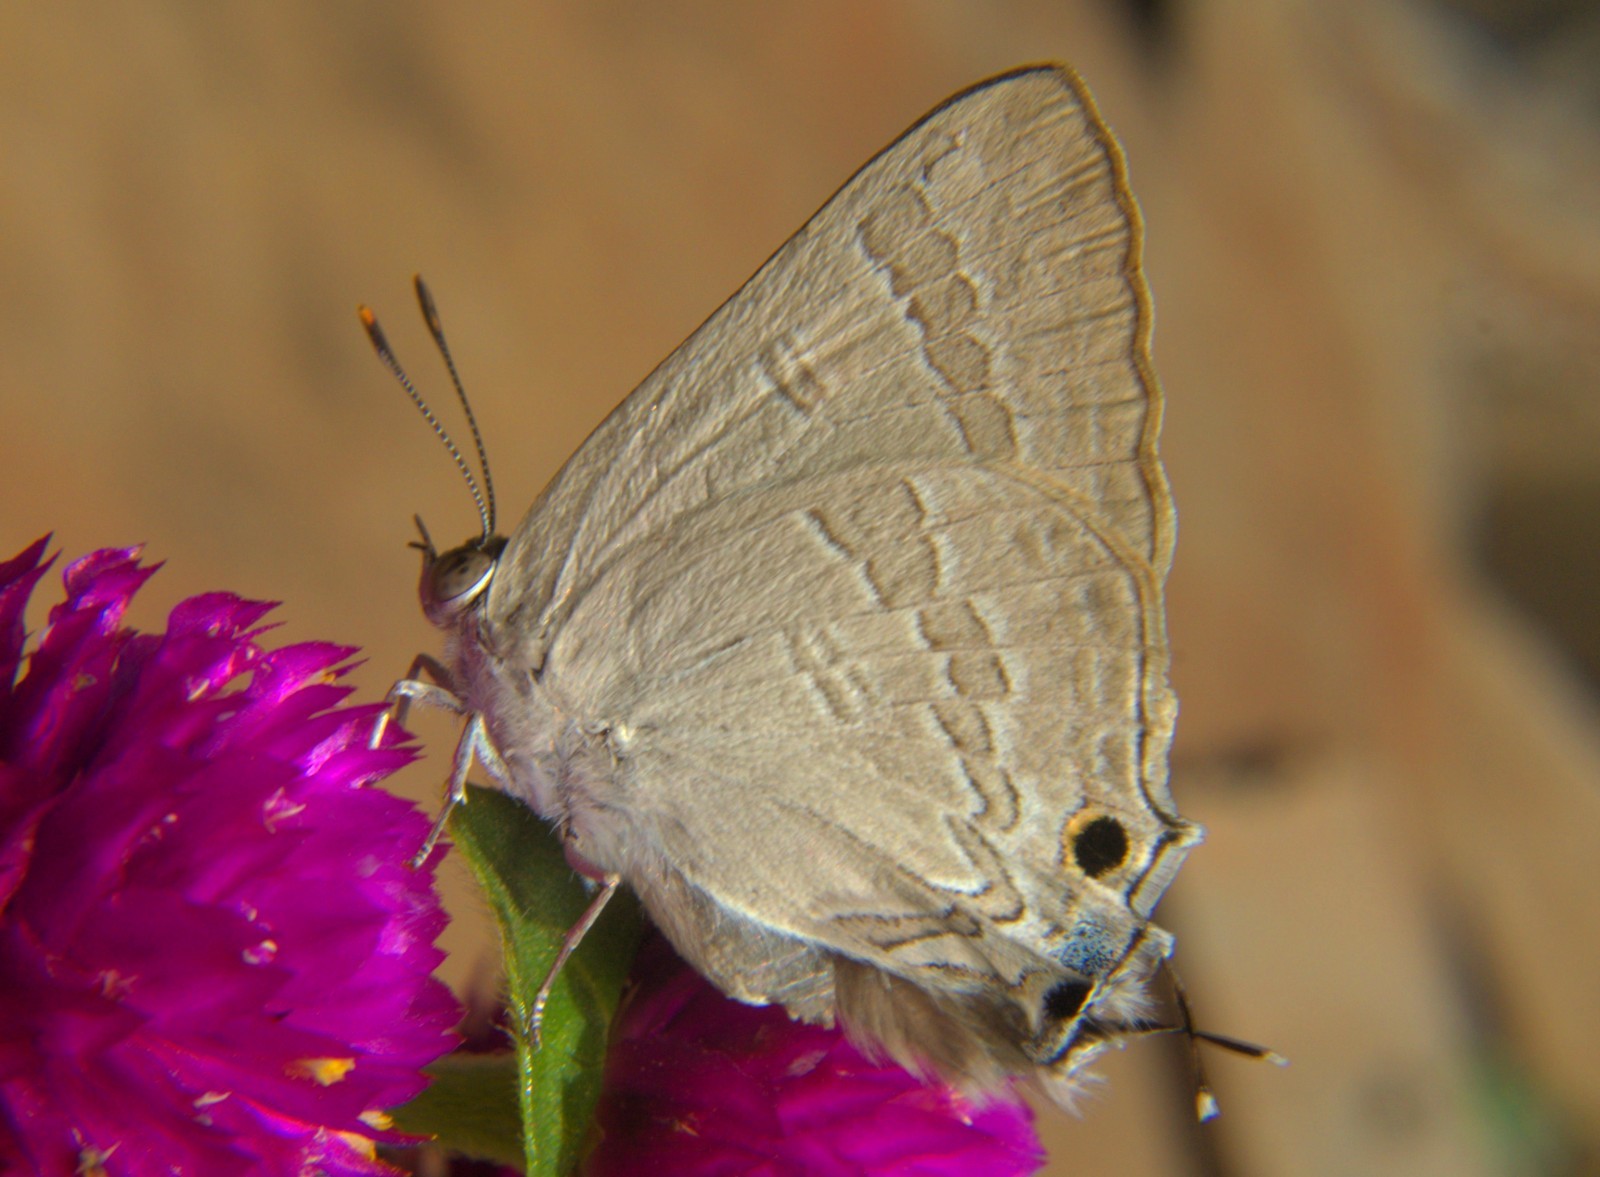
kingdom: Animalia
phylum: Arthropoda
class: Insecta
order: Lepidoptera
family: Lycaenidae
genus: Deudorix
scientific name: Deudorix
